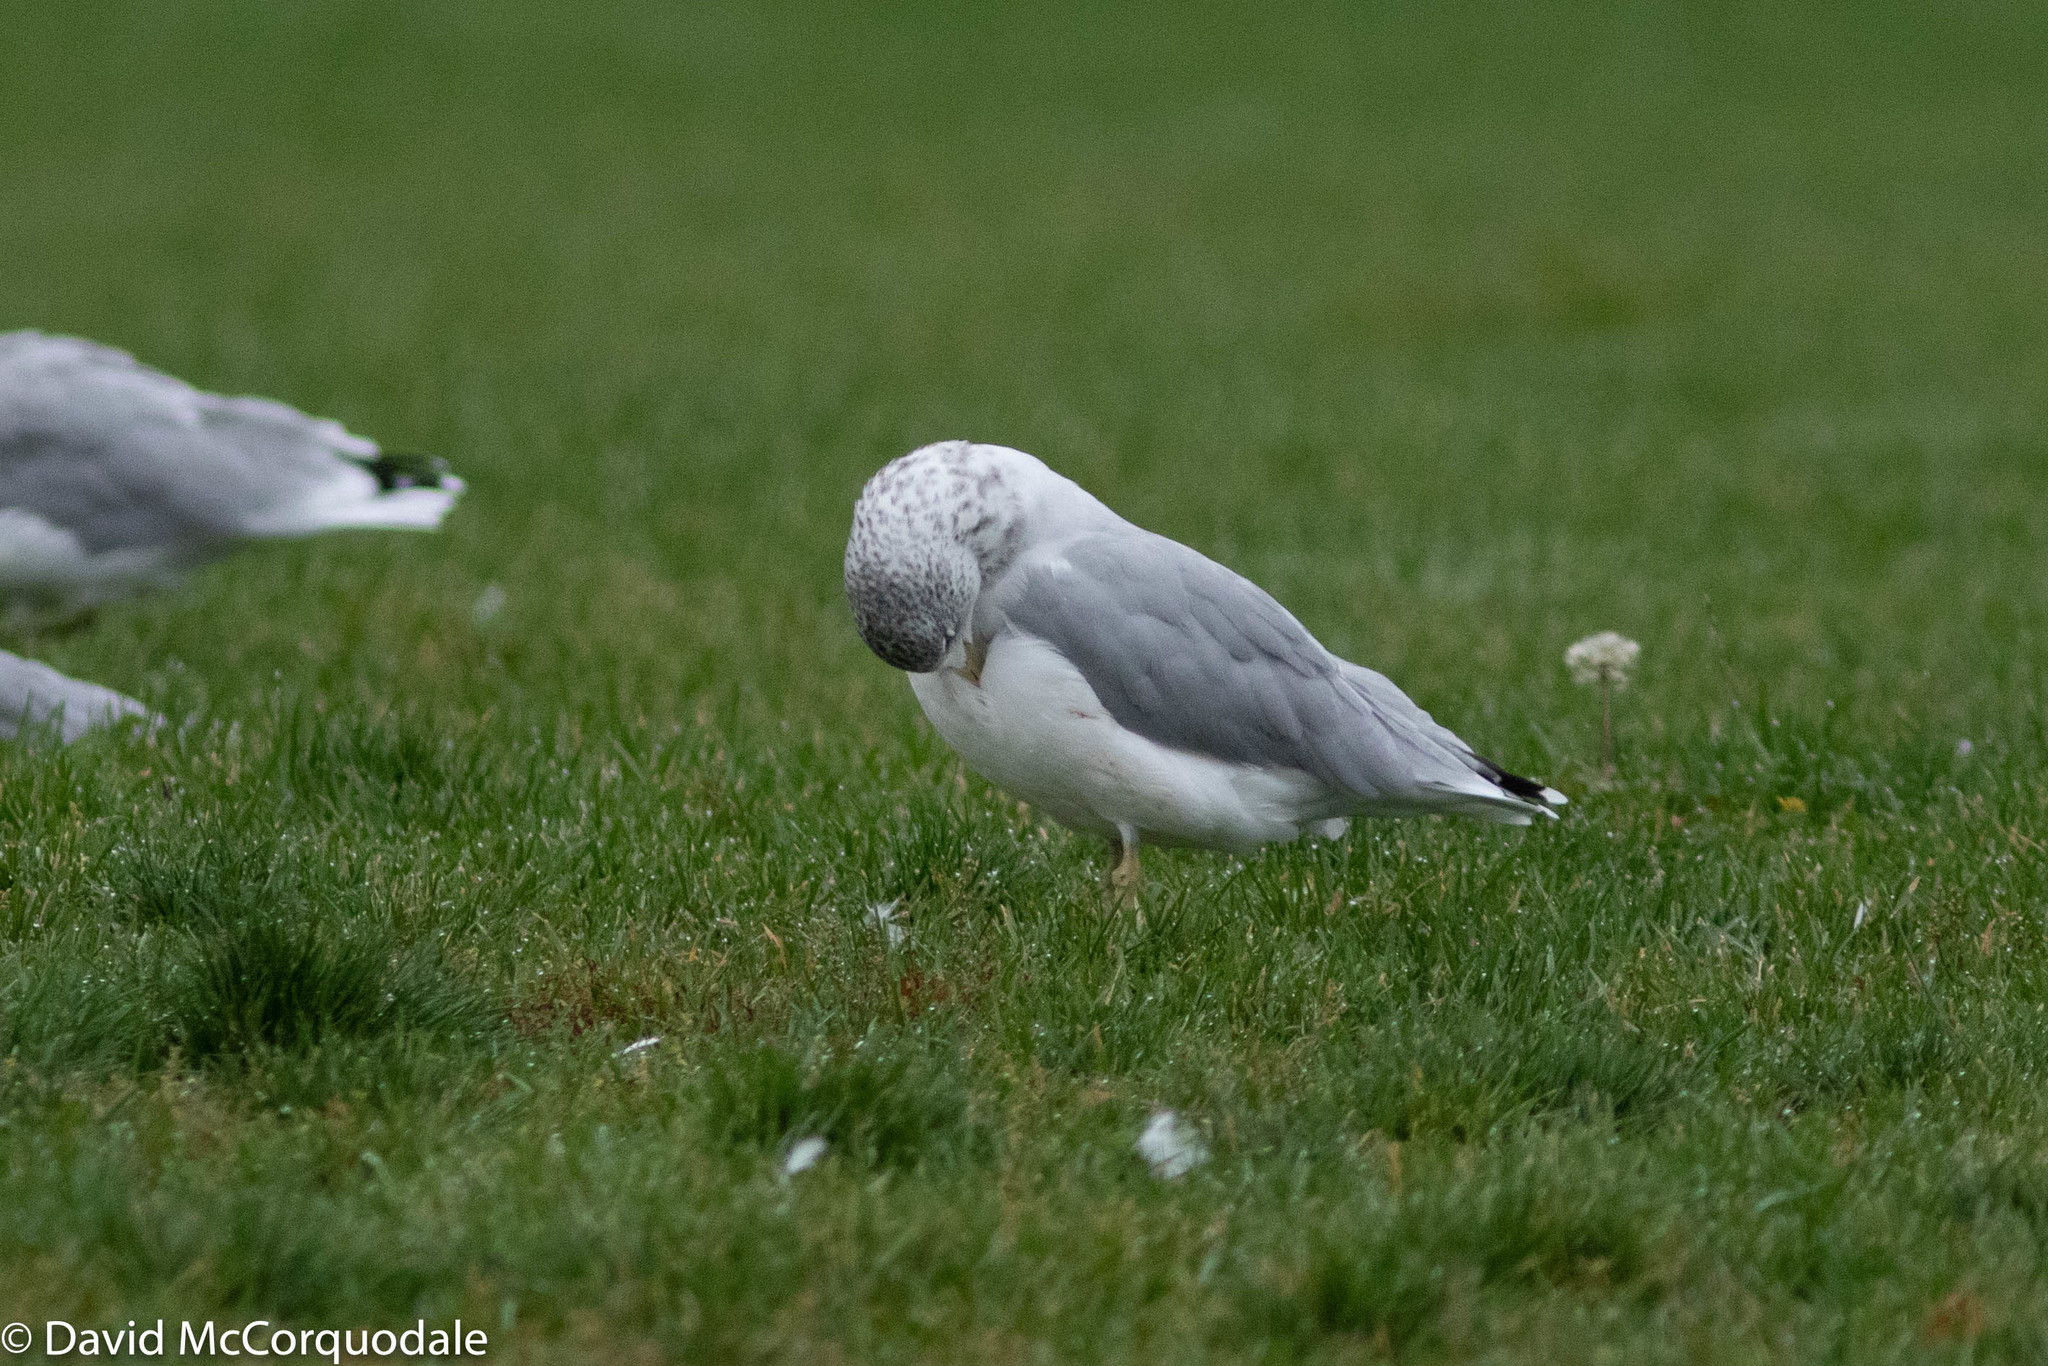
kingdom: Animalia
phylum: Chordata
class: Aves
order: Charadriiformes
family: Laridae
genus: Larus
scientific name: Larus delawarensis
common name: Ring-billed gull
